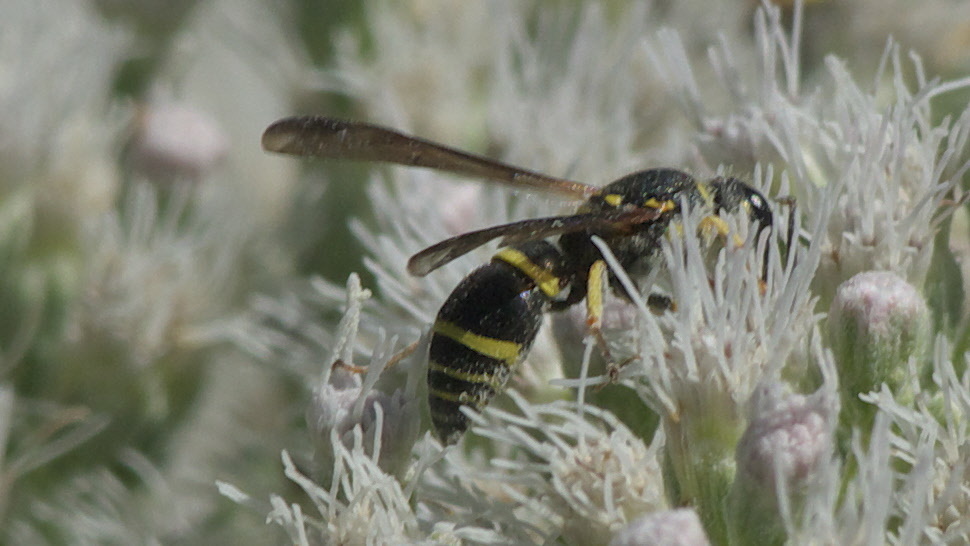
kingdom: Animalia
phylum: Arthropoda
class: Insecta
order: Hymenoptera
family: Vespidae
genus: Ancistrocerus
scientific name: Ancistrocerus adiabatus
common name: Bramble mason wasp
